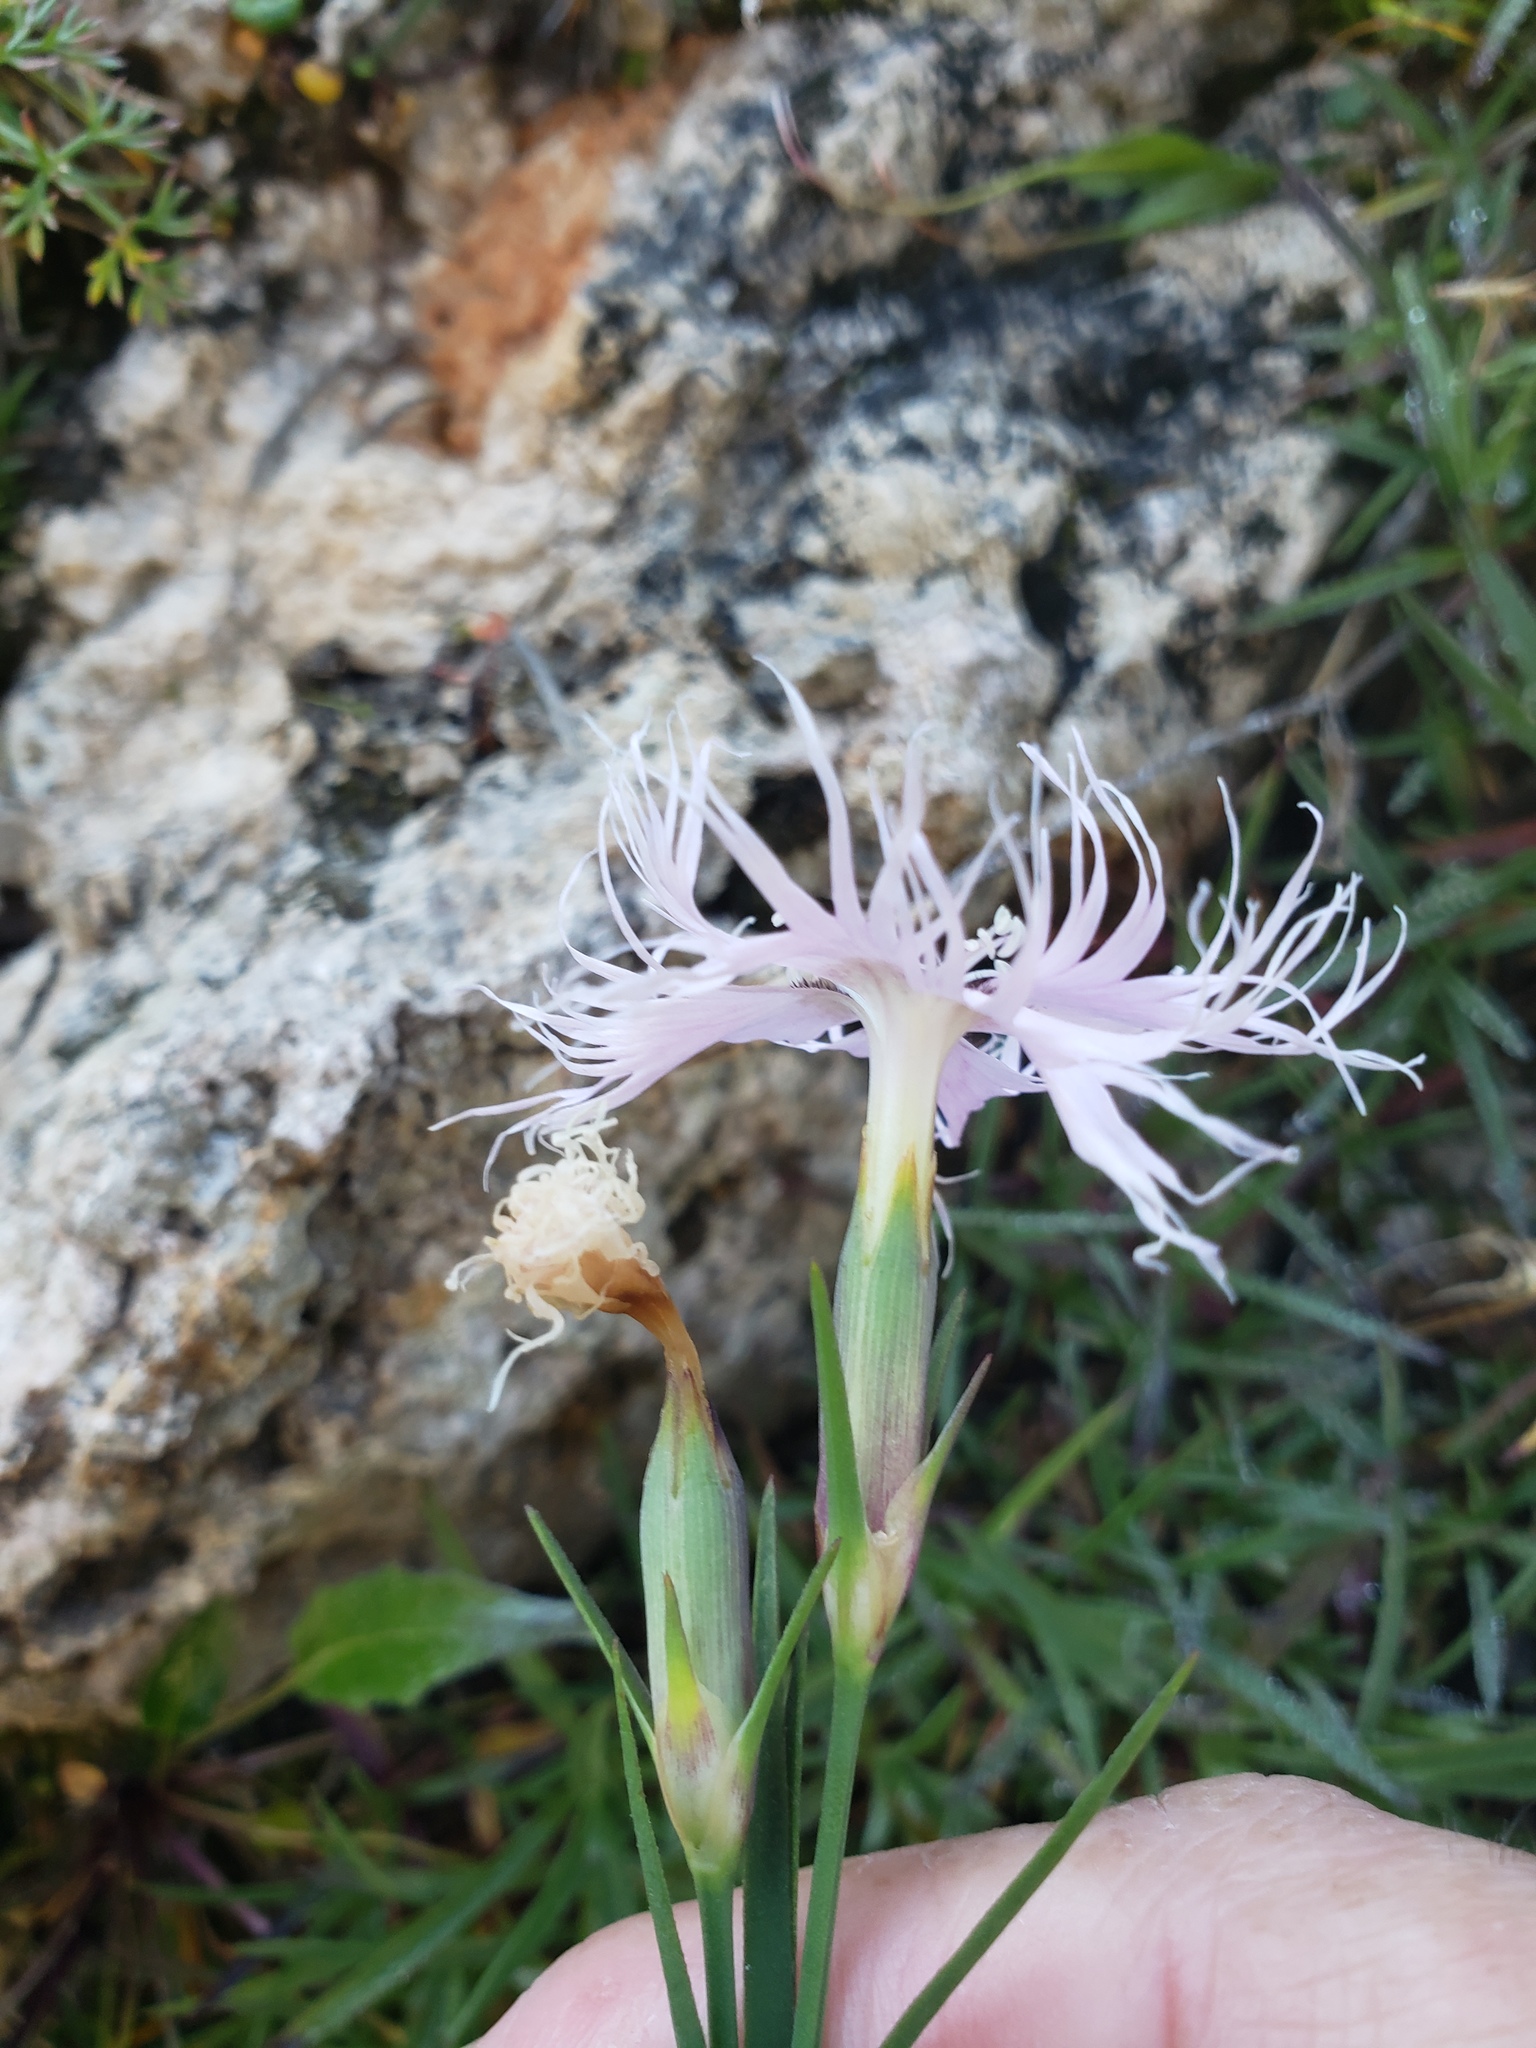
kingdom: Plantae
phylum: Tracheophyta
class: Magnoliopsida
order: Caryophyllales
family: Caryophyllaceae
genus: Dianthus
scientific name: Dianthus sternbergii
